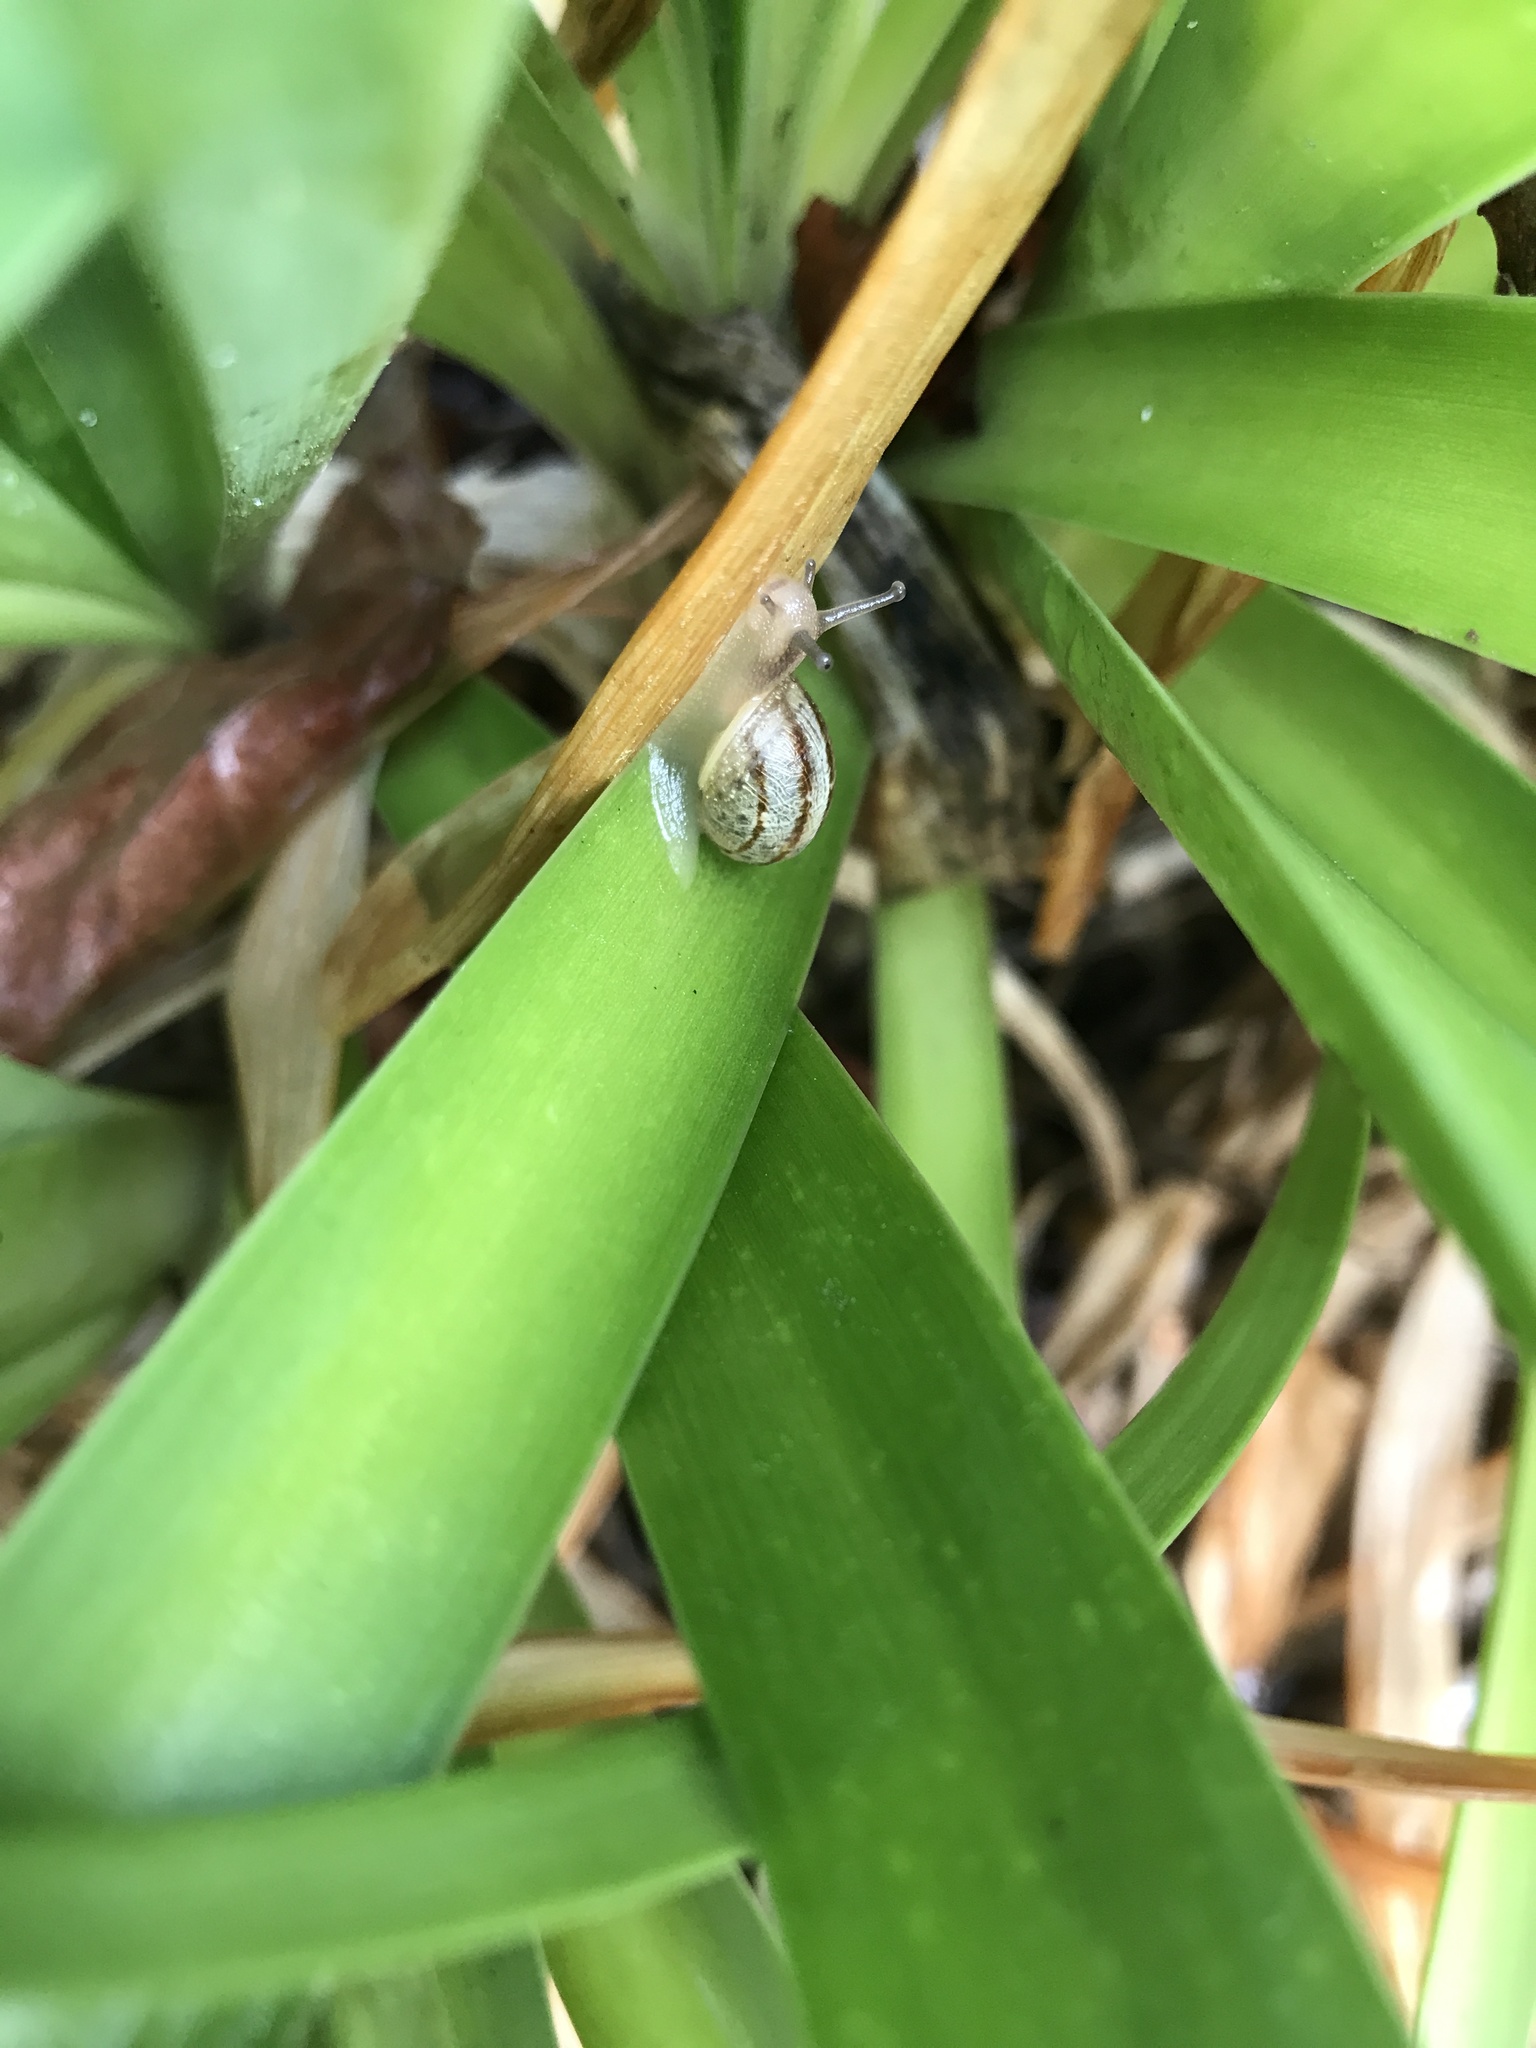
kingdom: Animalia
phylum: Mollusca
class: Gastropoda
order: Stylommatophora
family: Helicidae
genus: Cornu
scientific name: Cornu aspersum
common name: Brown garden snail
